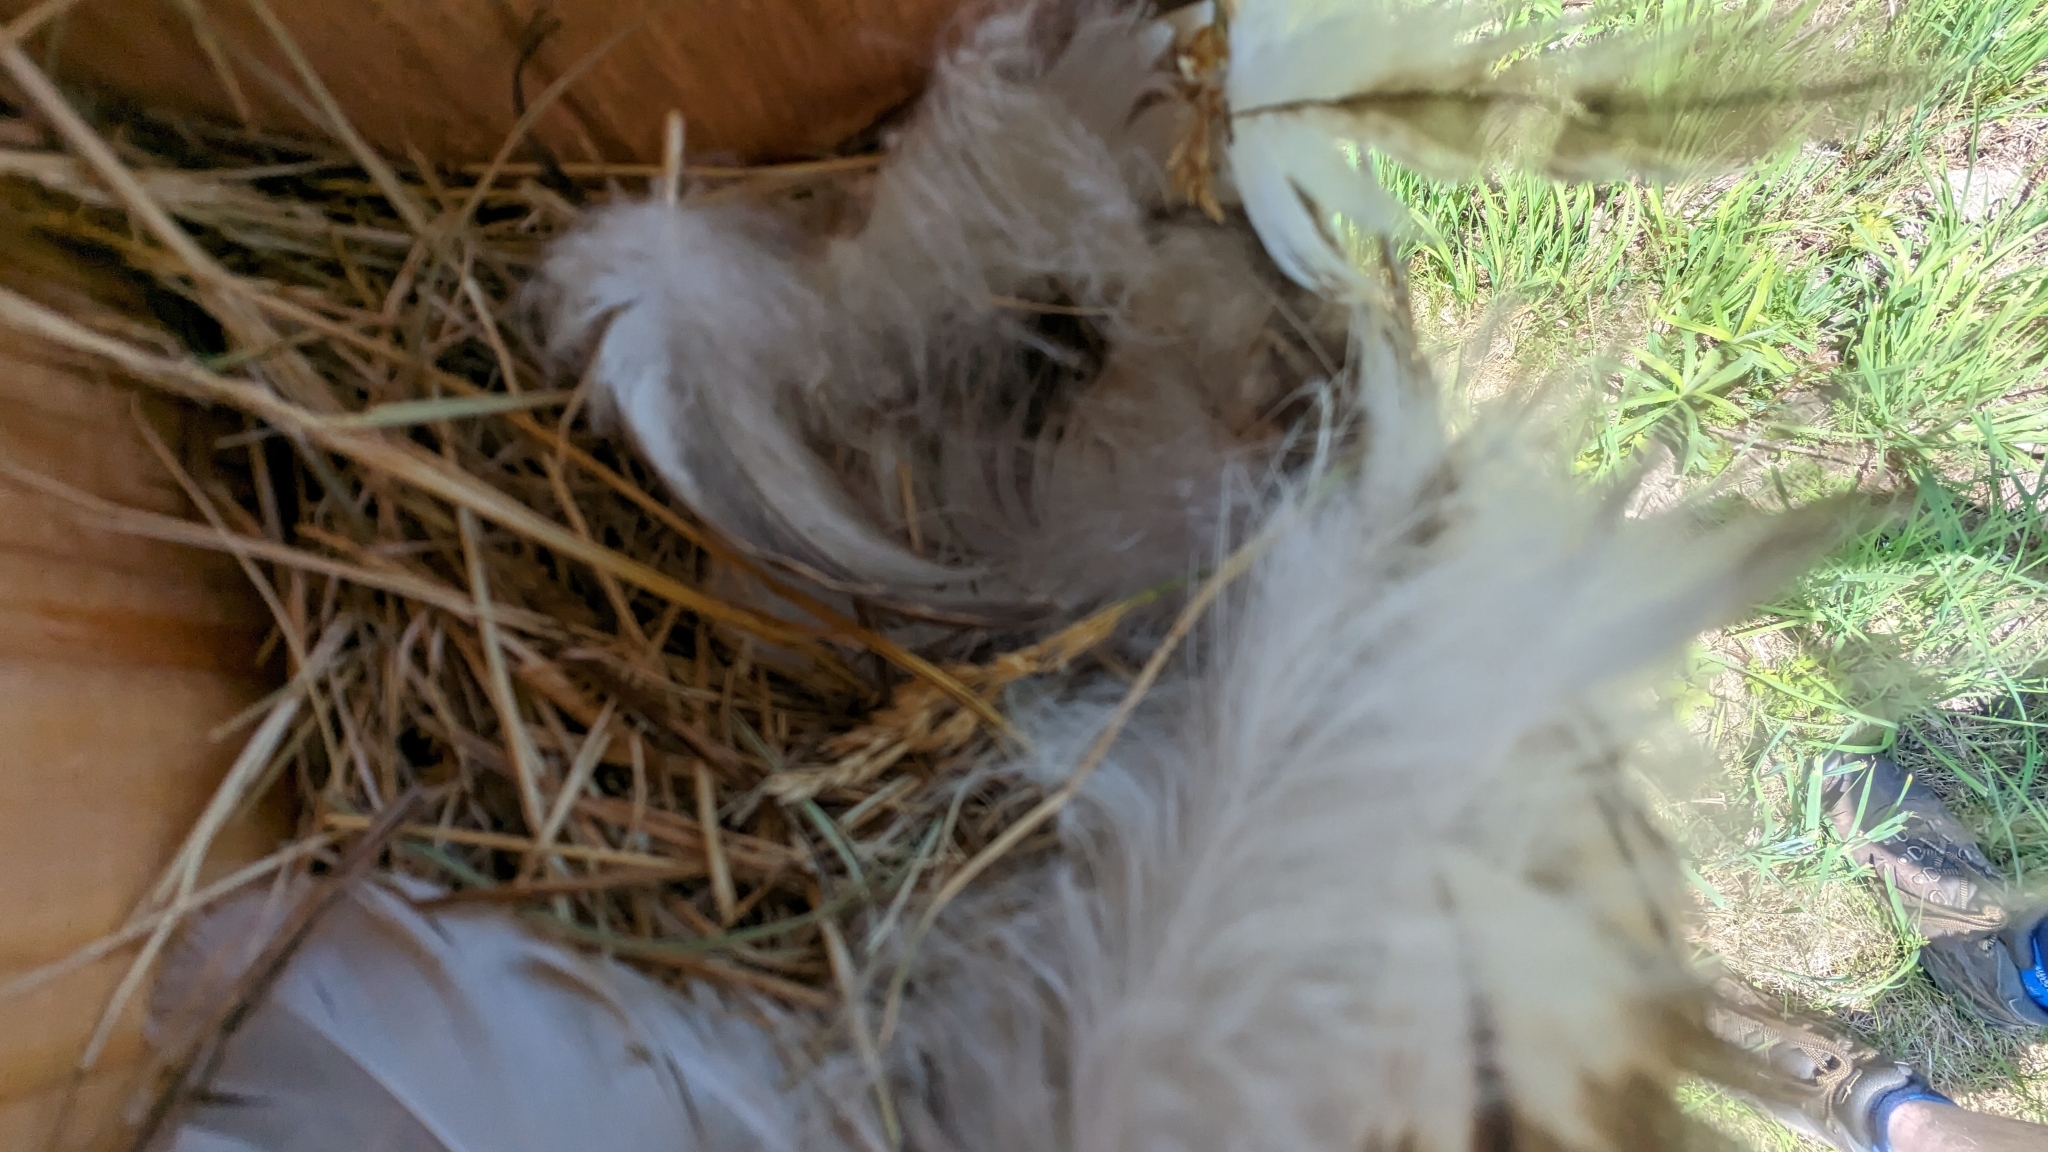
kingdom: Animalia
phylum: Chordata
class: Aves
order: Passeriformes
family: Hirundinidae
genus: Tachycineta
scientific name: Tachycineta bicolor
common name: Tree swallow
